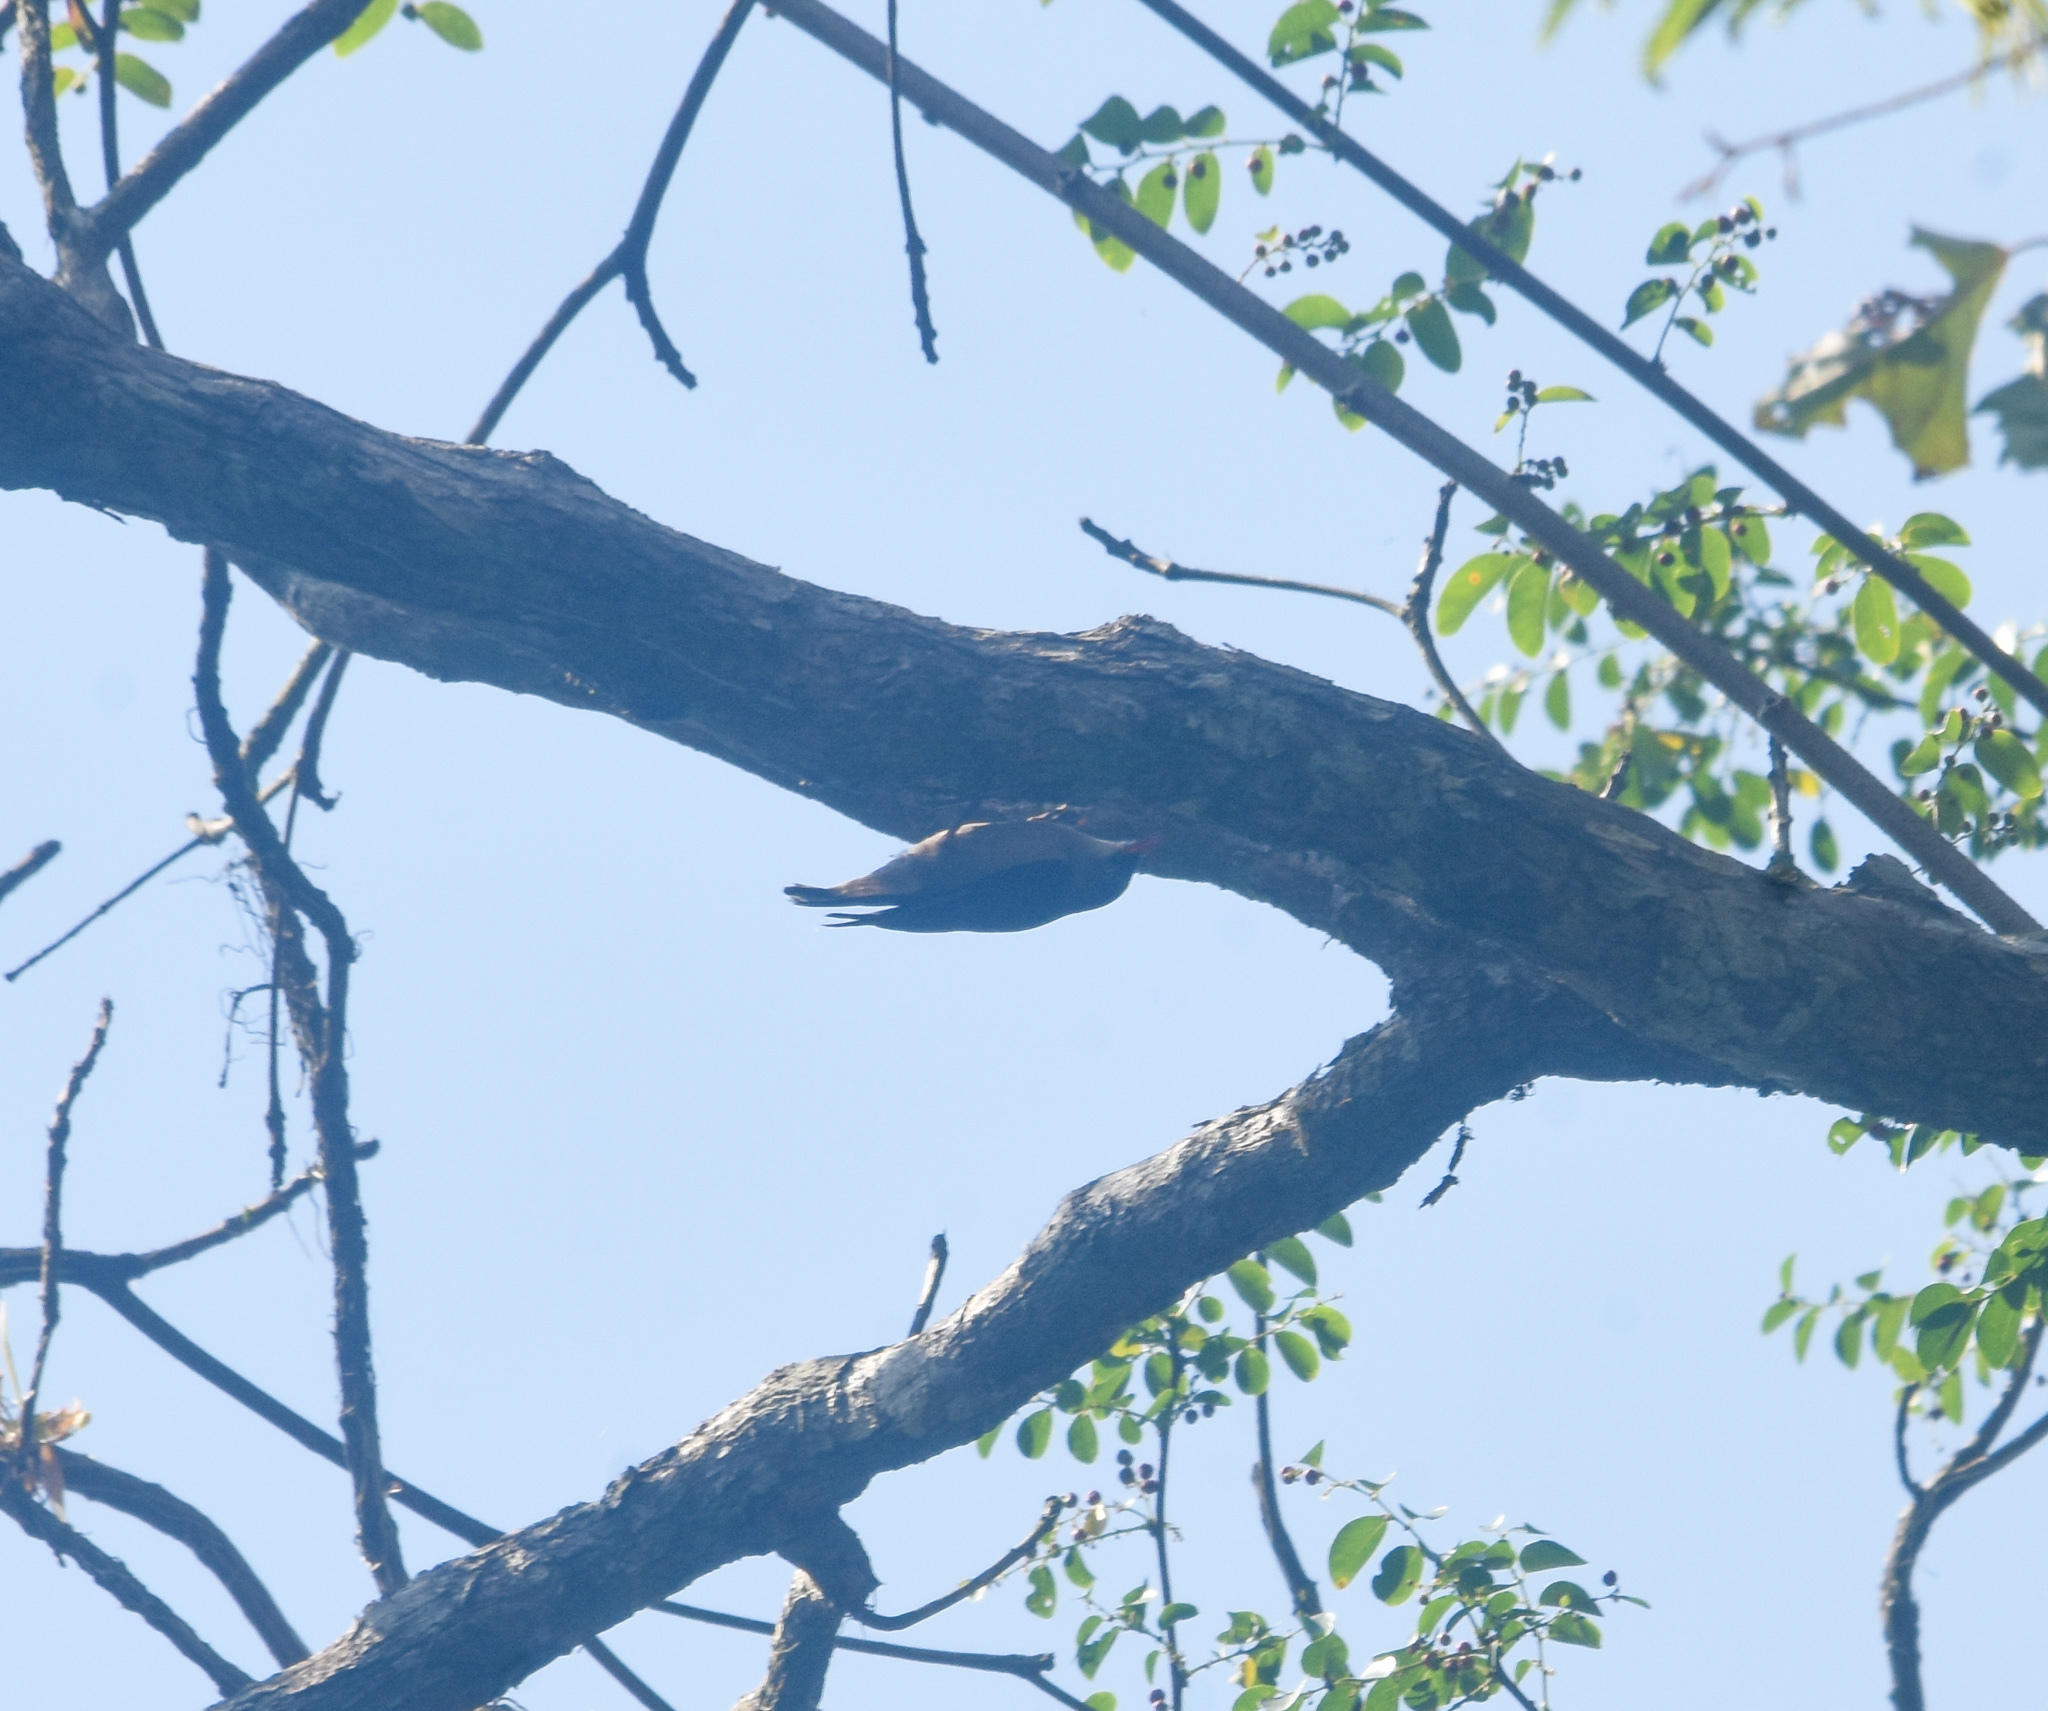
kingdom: Animalia
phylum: Chordata
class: Aves
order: Passeriformes
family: Sittidae
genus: Sitta
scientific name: Sitta frontalis
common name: Velvet-fronted nuthatch
